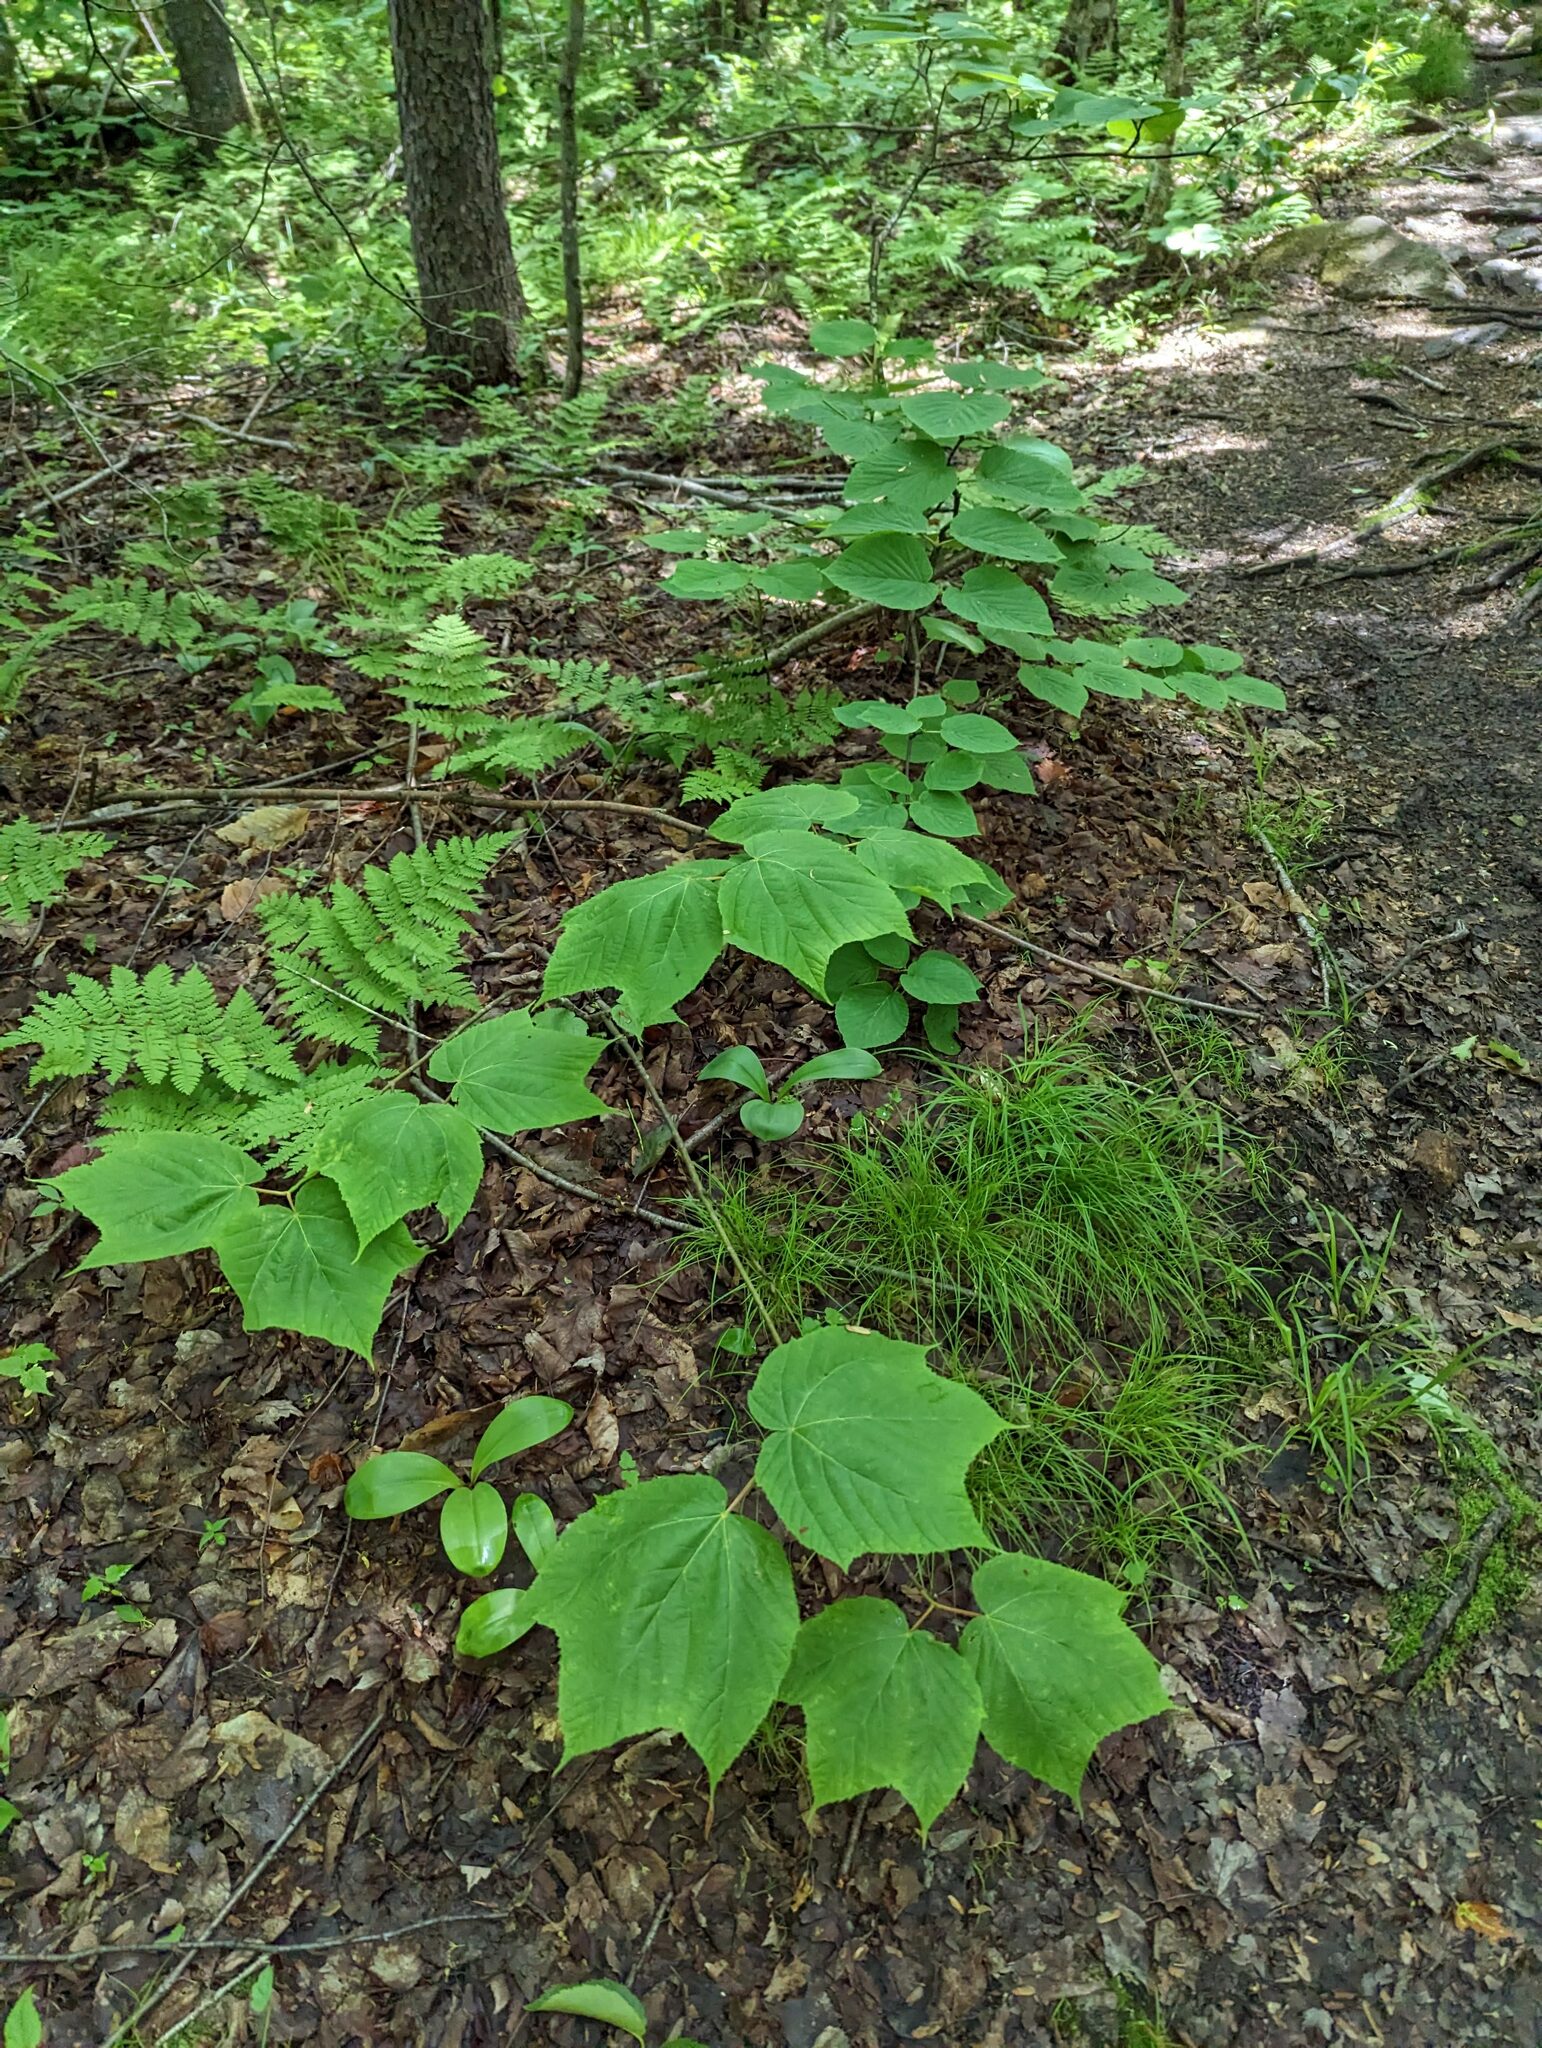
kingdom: Plantae
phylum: Tracheophyta
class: Magnoliopsida
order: Sapindales
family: Sapindaceae
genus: Acer
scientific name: Acer pensylvanicum
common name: Moosewood
